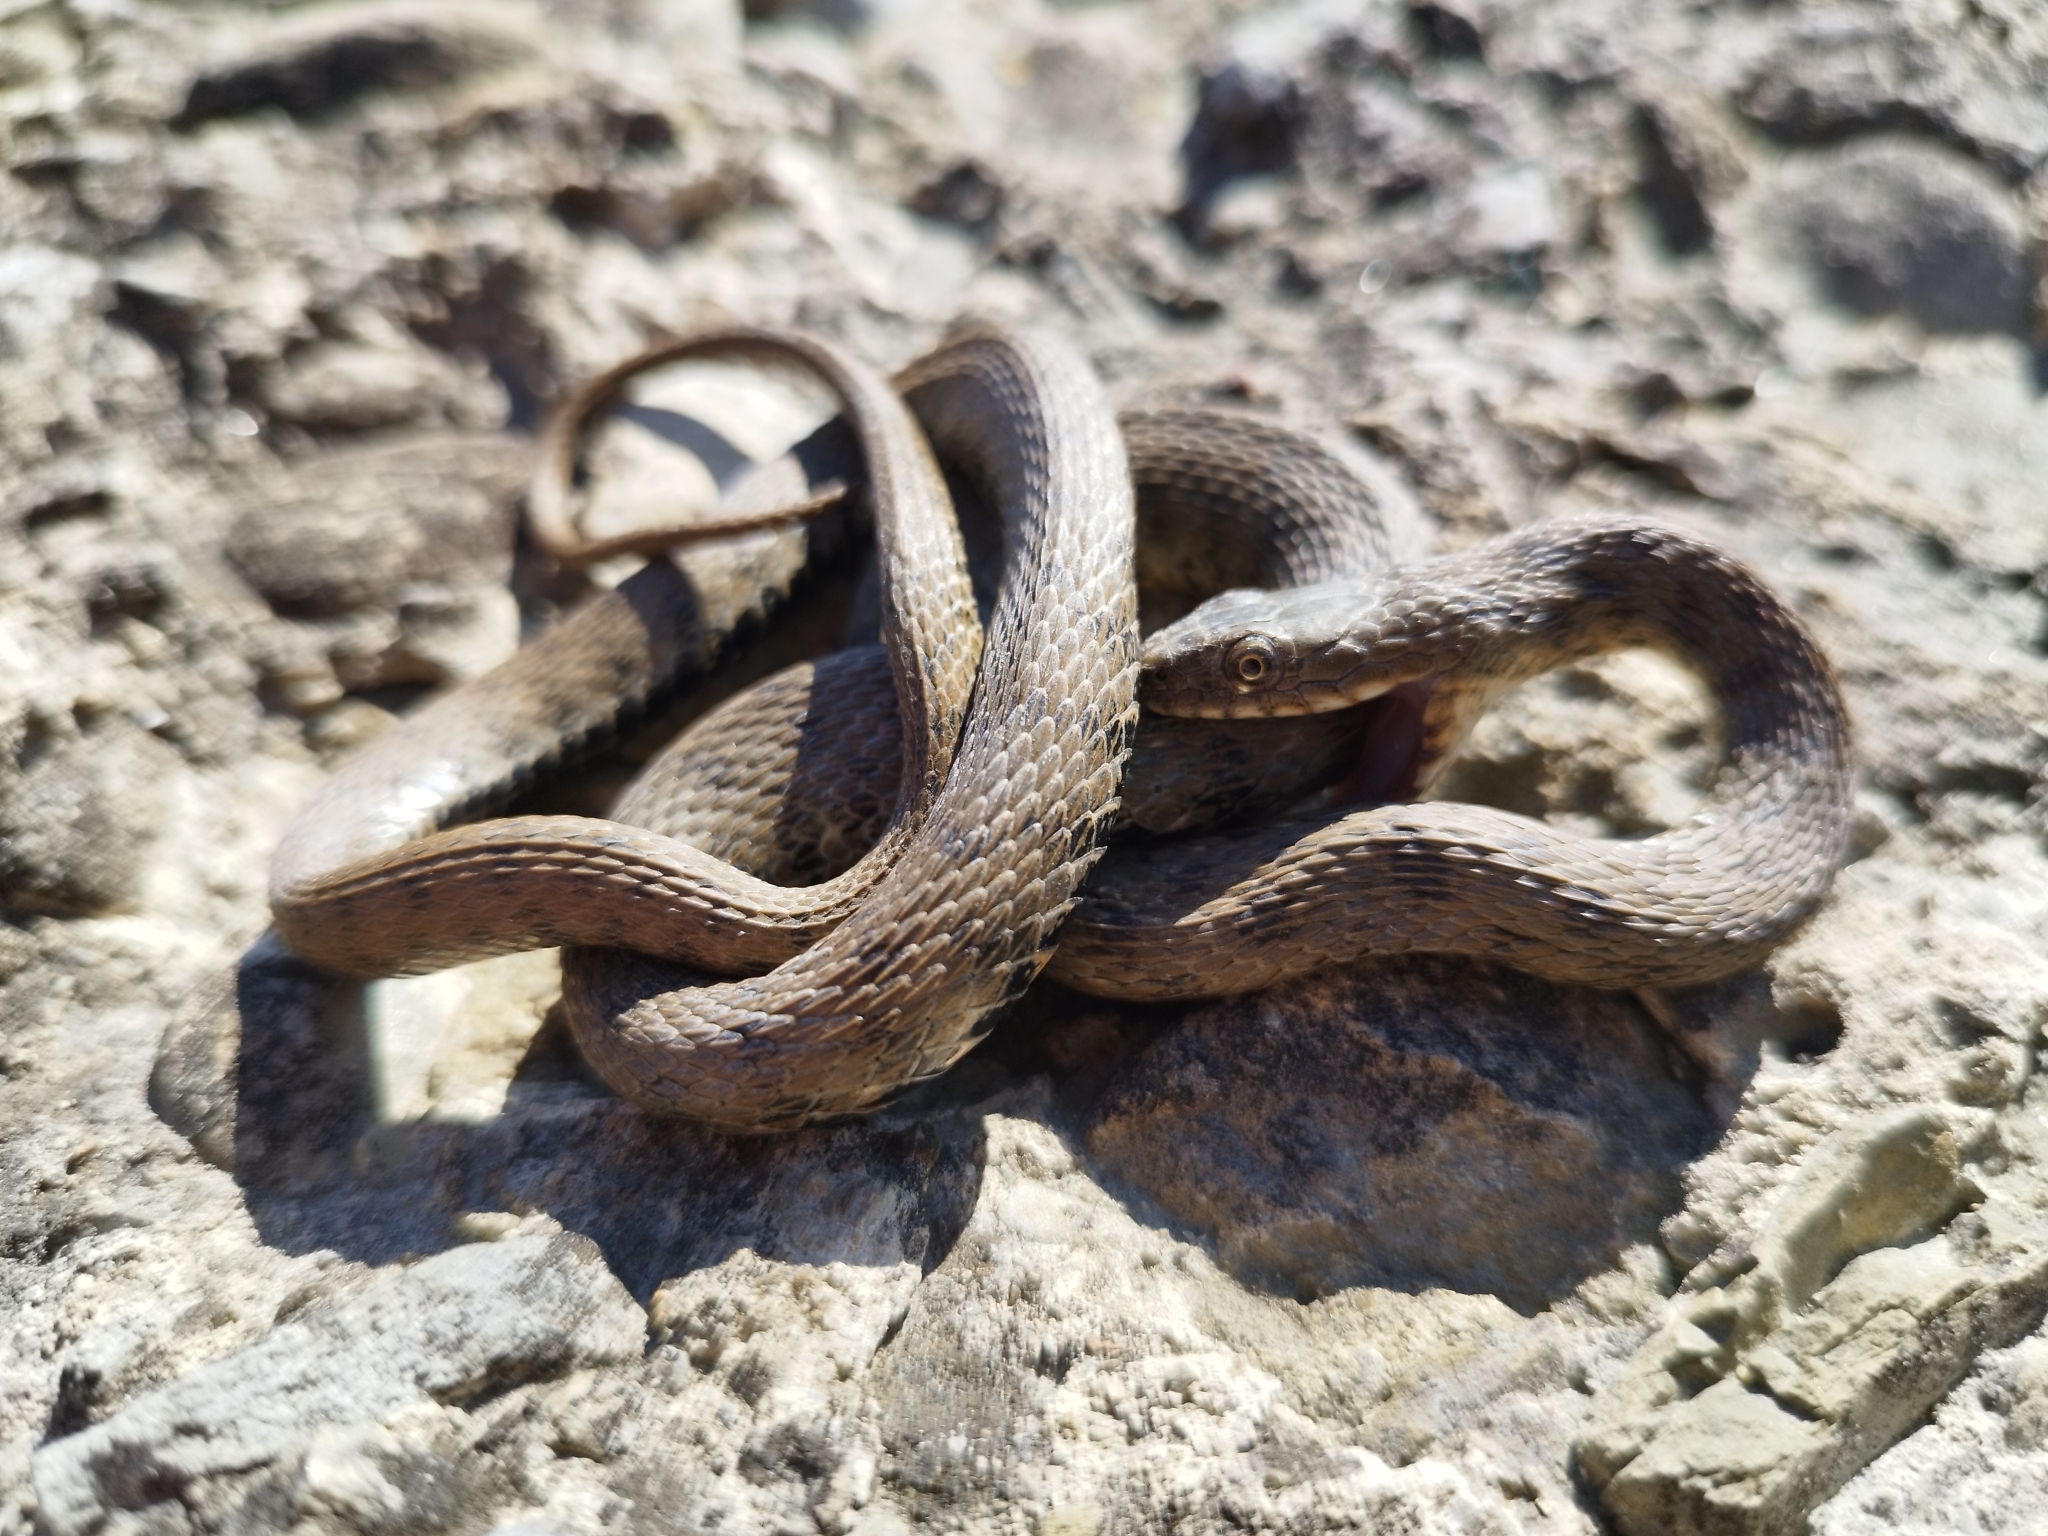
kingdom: Animalia
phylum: Chordata
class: Squamata
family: Colubridae
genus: Natrix
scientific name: Natrix tessellata
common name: Dice snake
